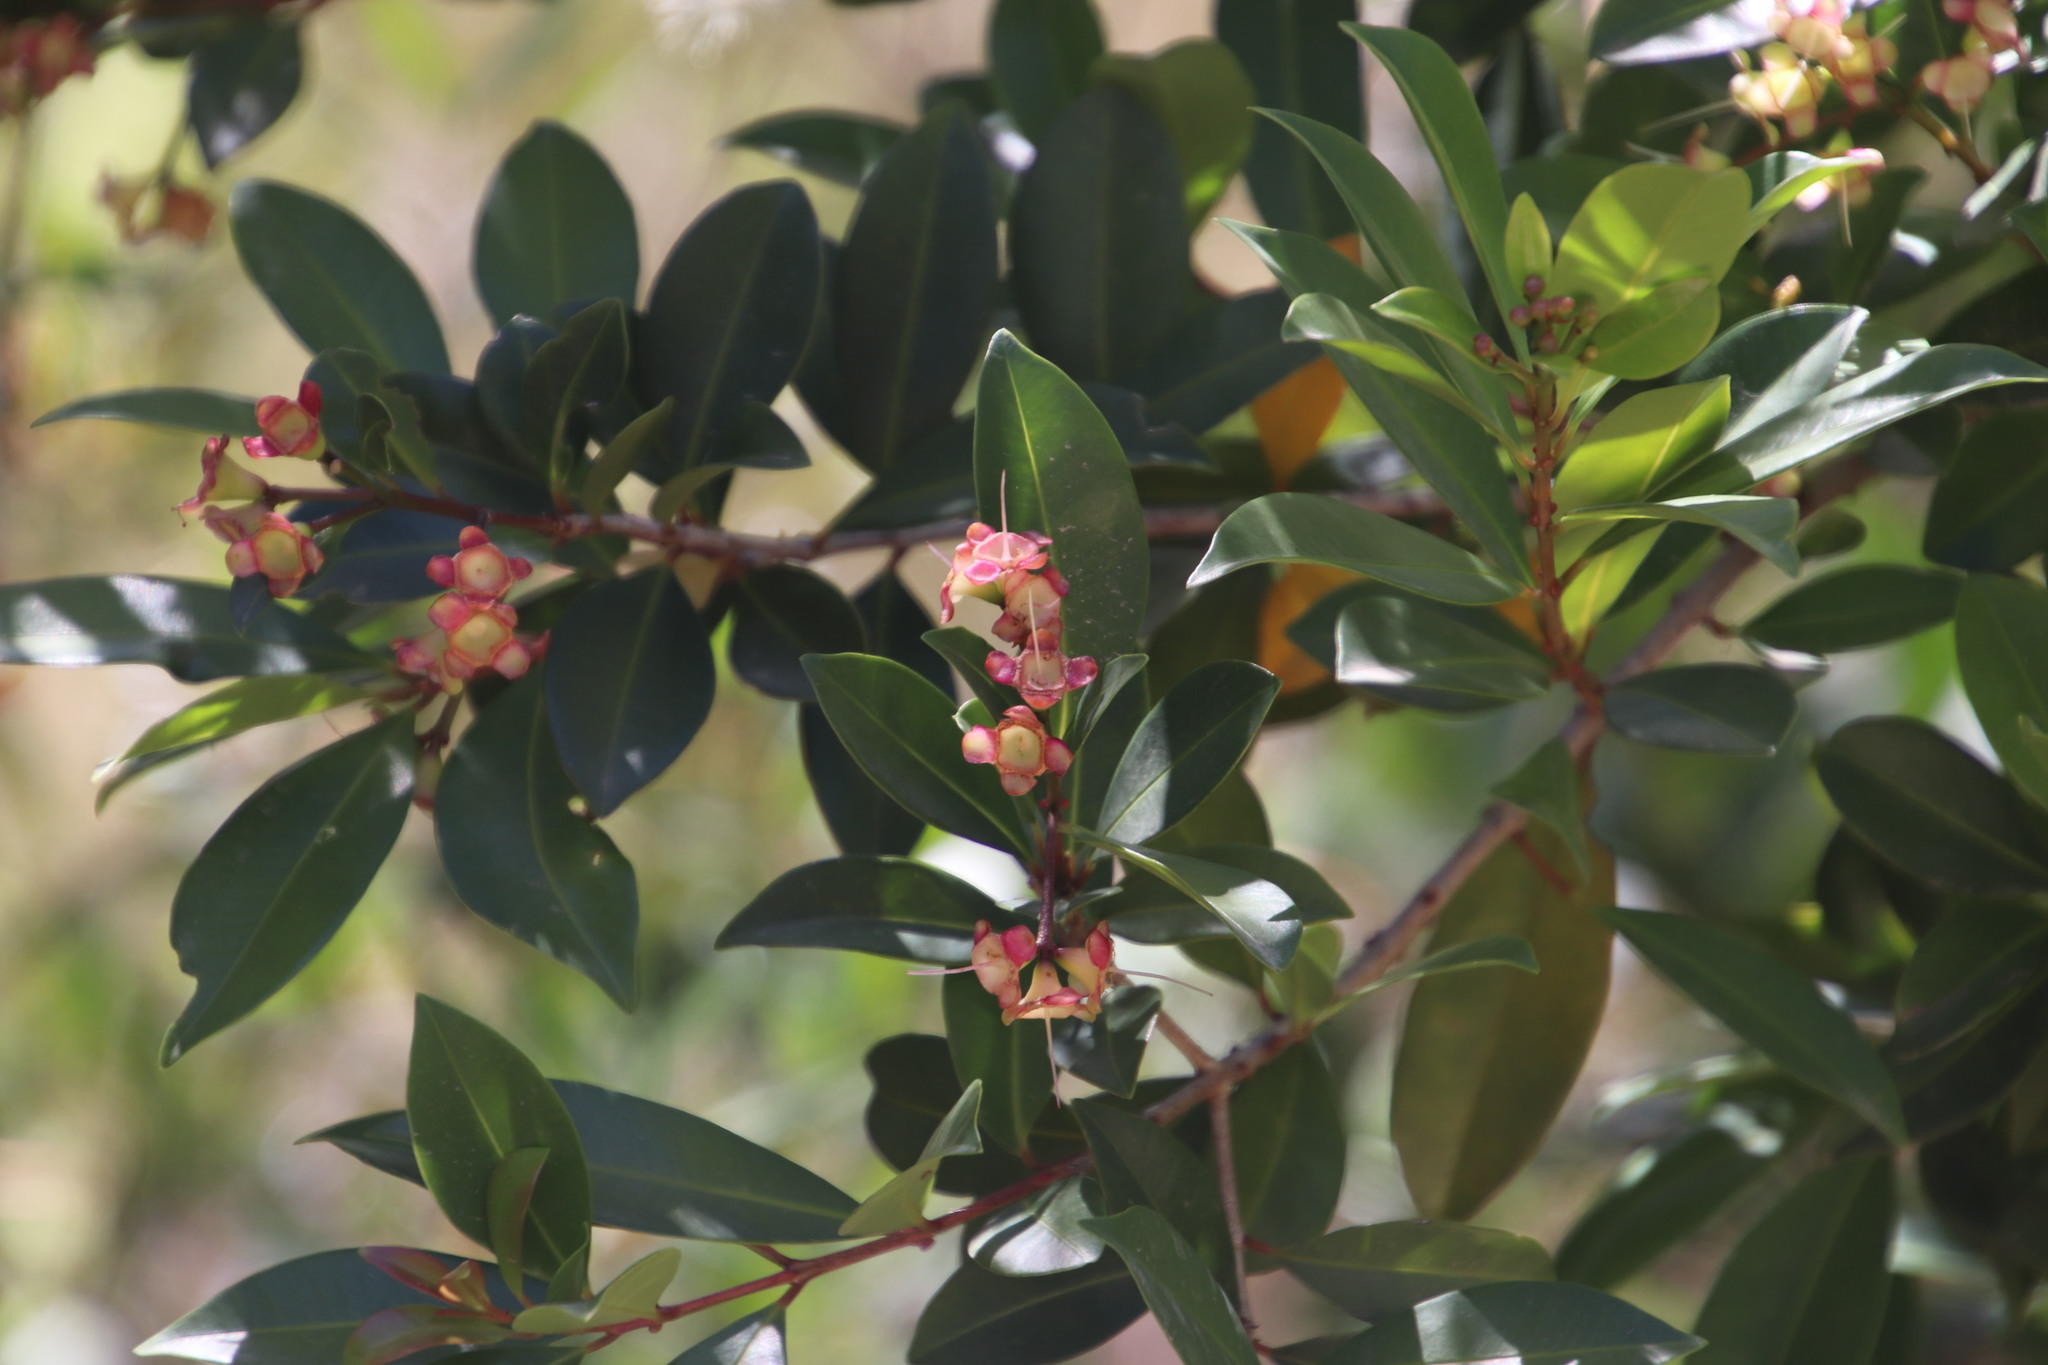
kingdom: Plantae
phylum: Tracheophyta
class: Magnoliopsida
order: Myrtales
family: Myrtaceae
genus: Syzygium
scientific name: Syzygium australe
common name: Australian brush-cherry
